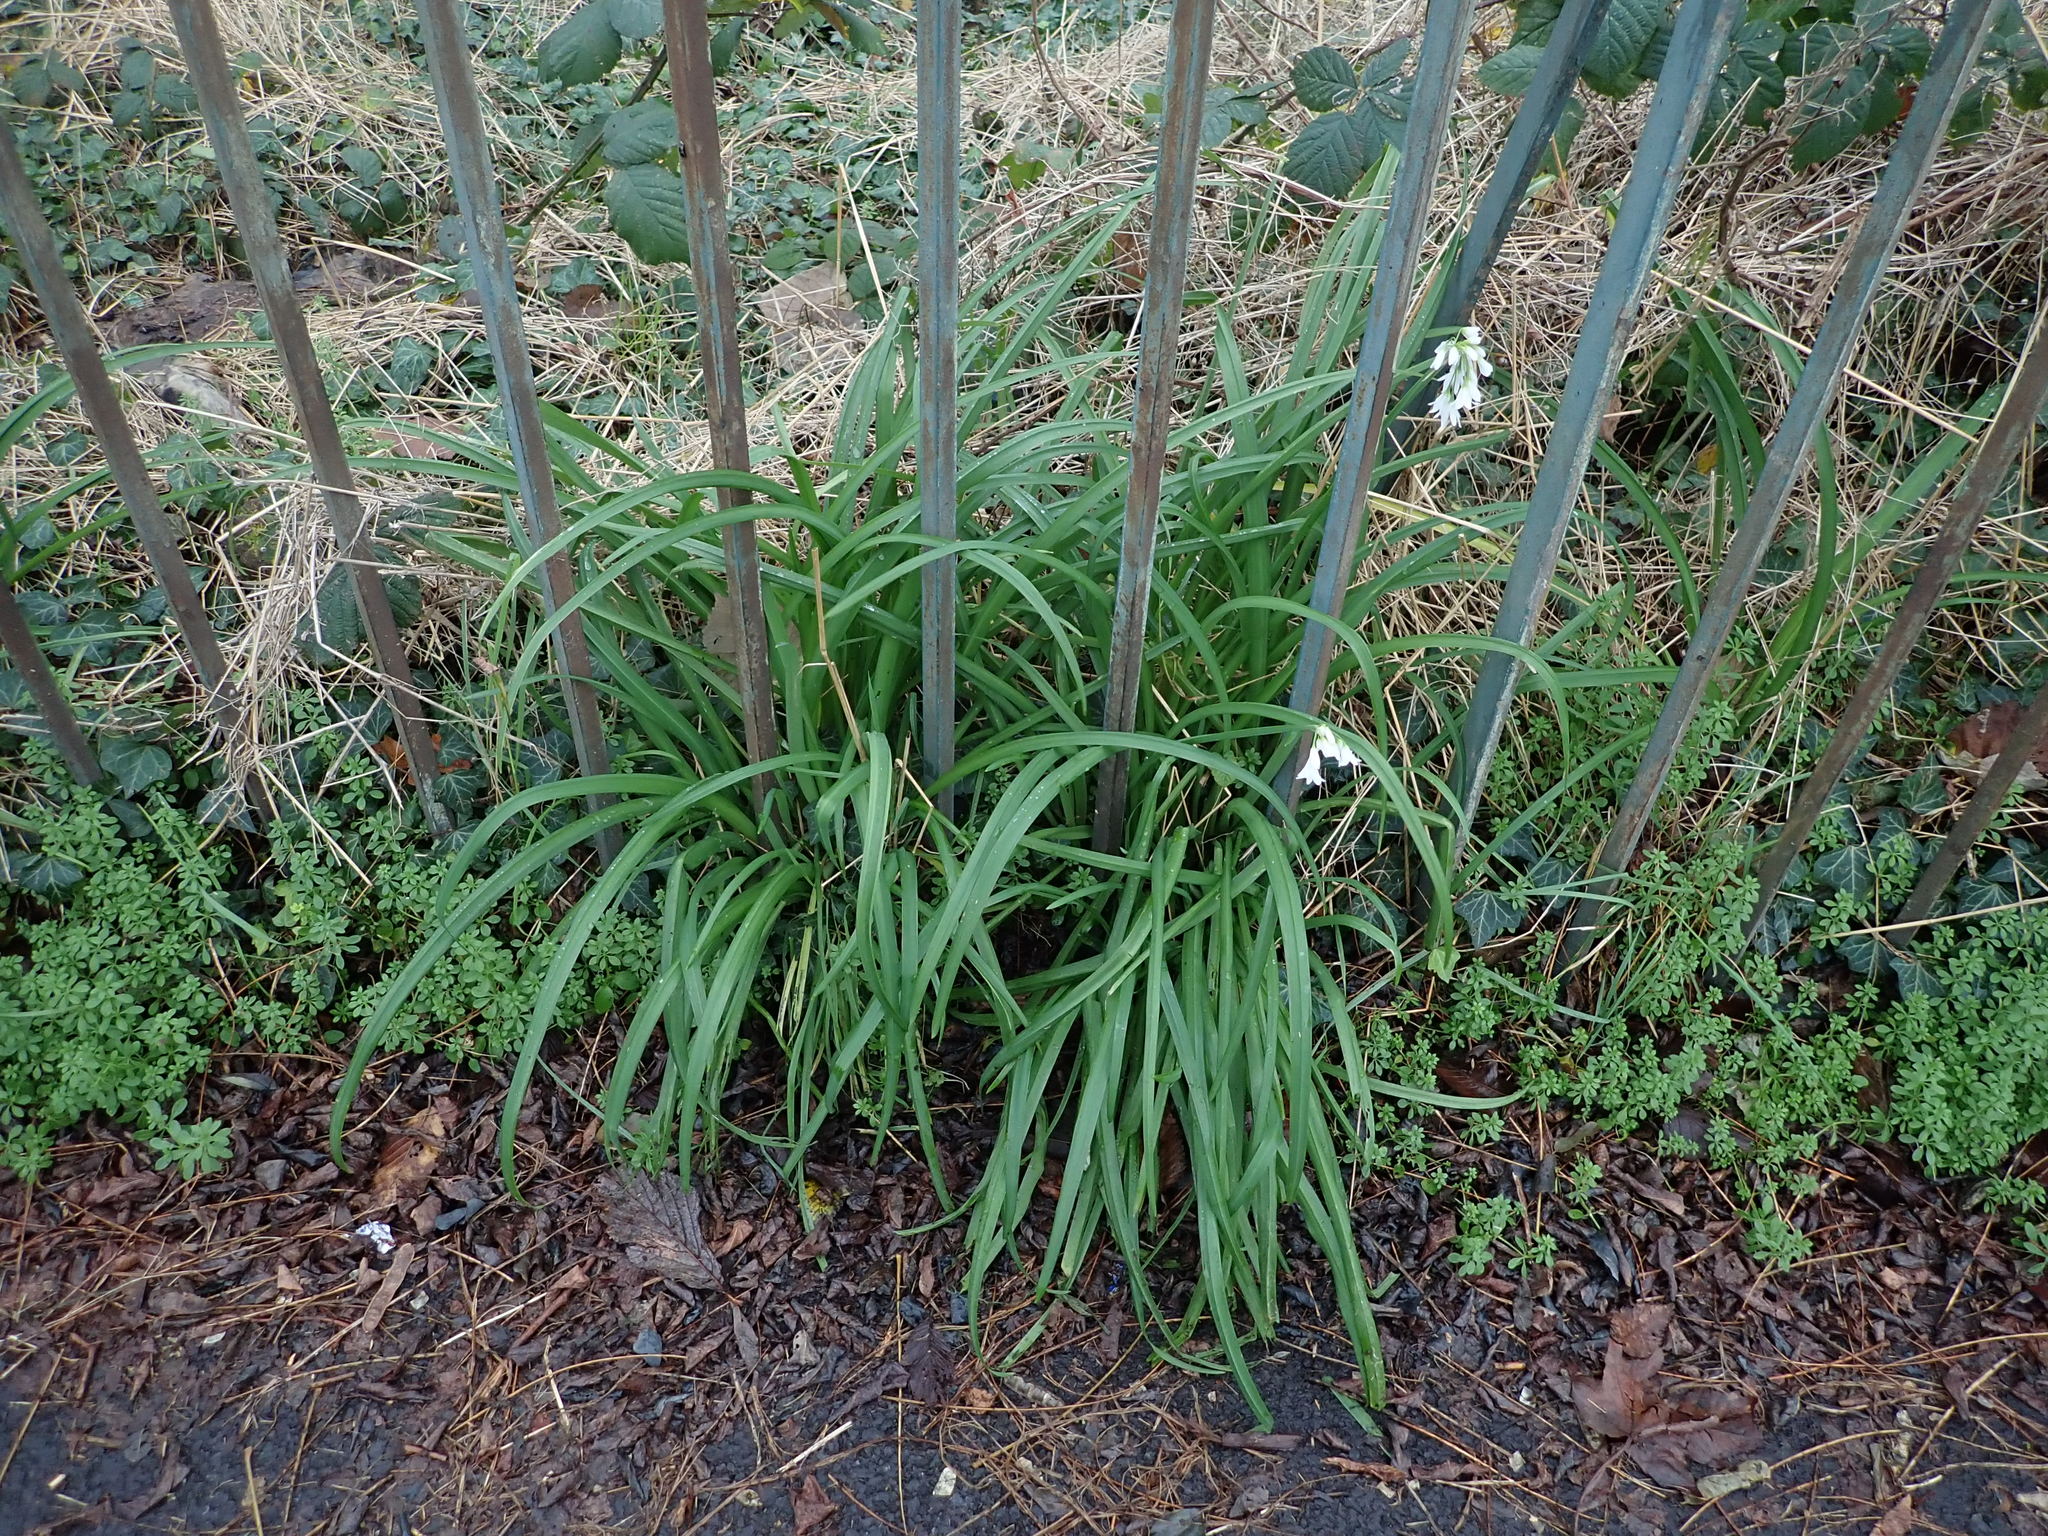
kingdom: Plantae
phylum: Tracheophyta
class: Liliopsida
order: Asparagales
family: Amaryllidaceae
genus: Allium
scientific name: Allium triquetrum
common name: Three-cornered garlic
